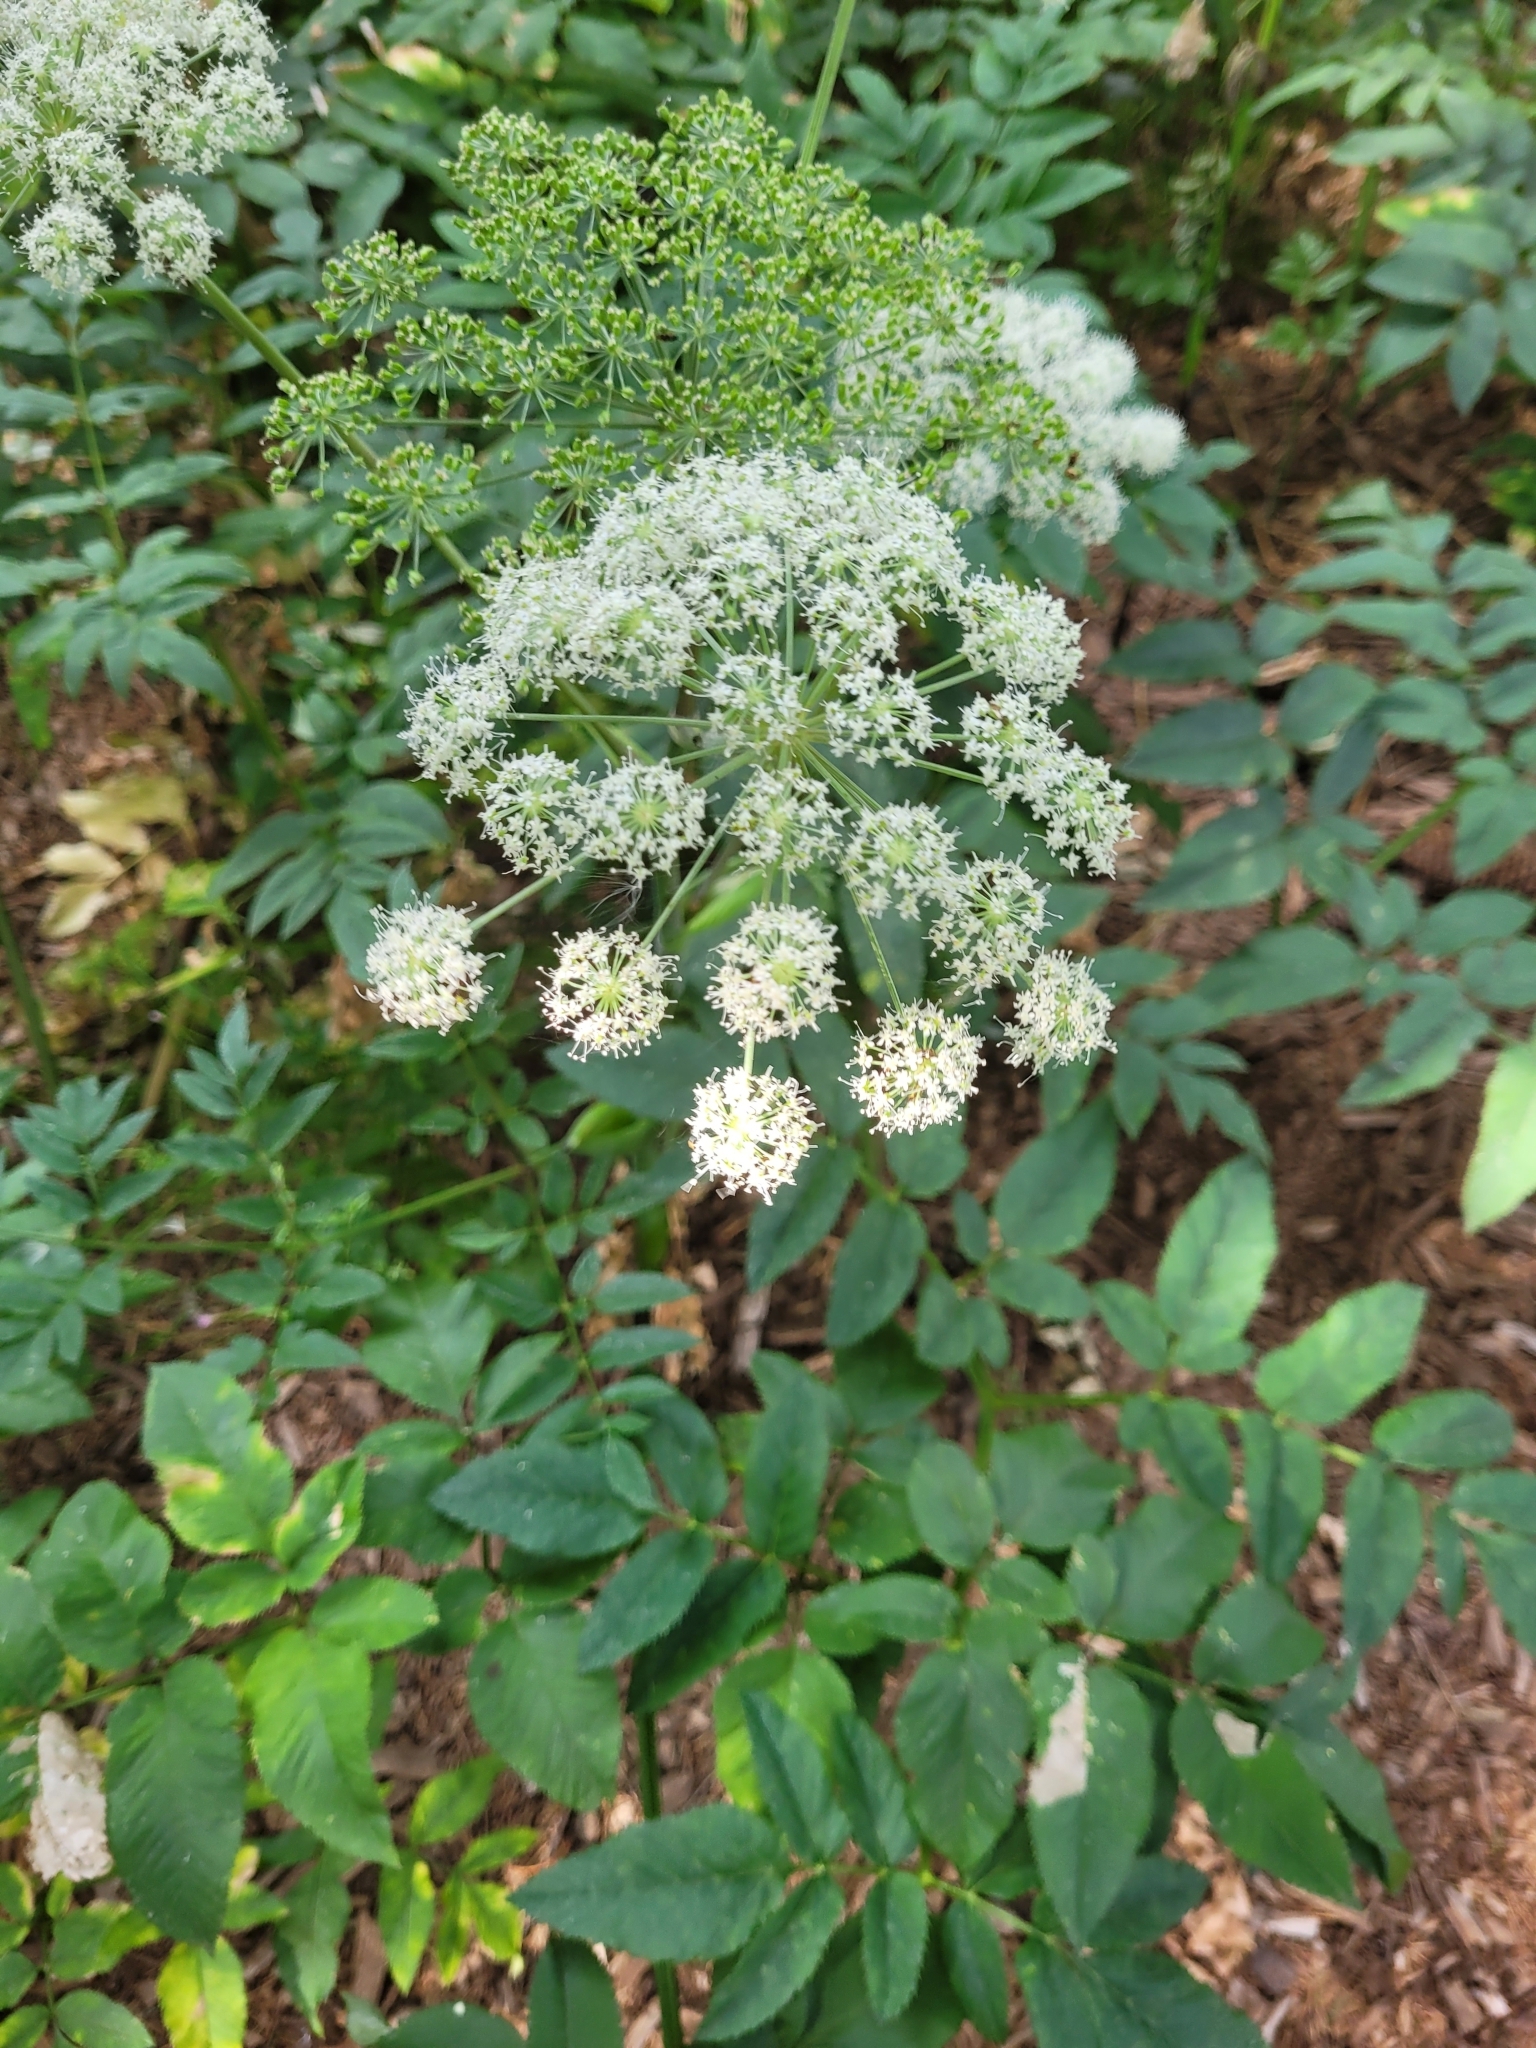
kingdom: Plantae
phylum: Tracheophyta
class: Magnoliopsida
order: Apiales
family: Apiaceae
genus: Angelica
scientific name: Angelica sylvestris
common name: Wild angelica
